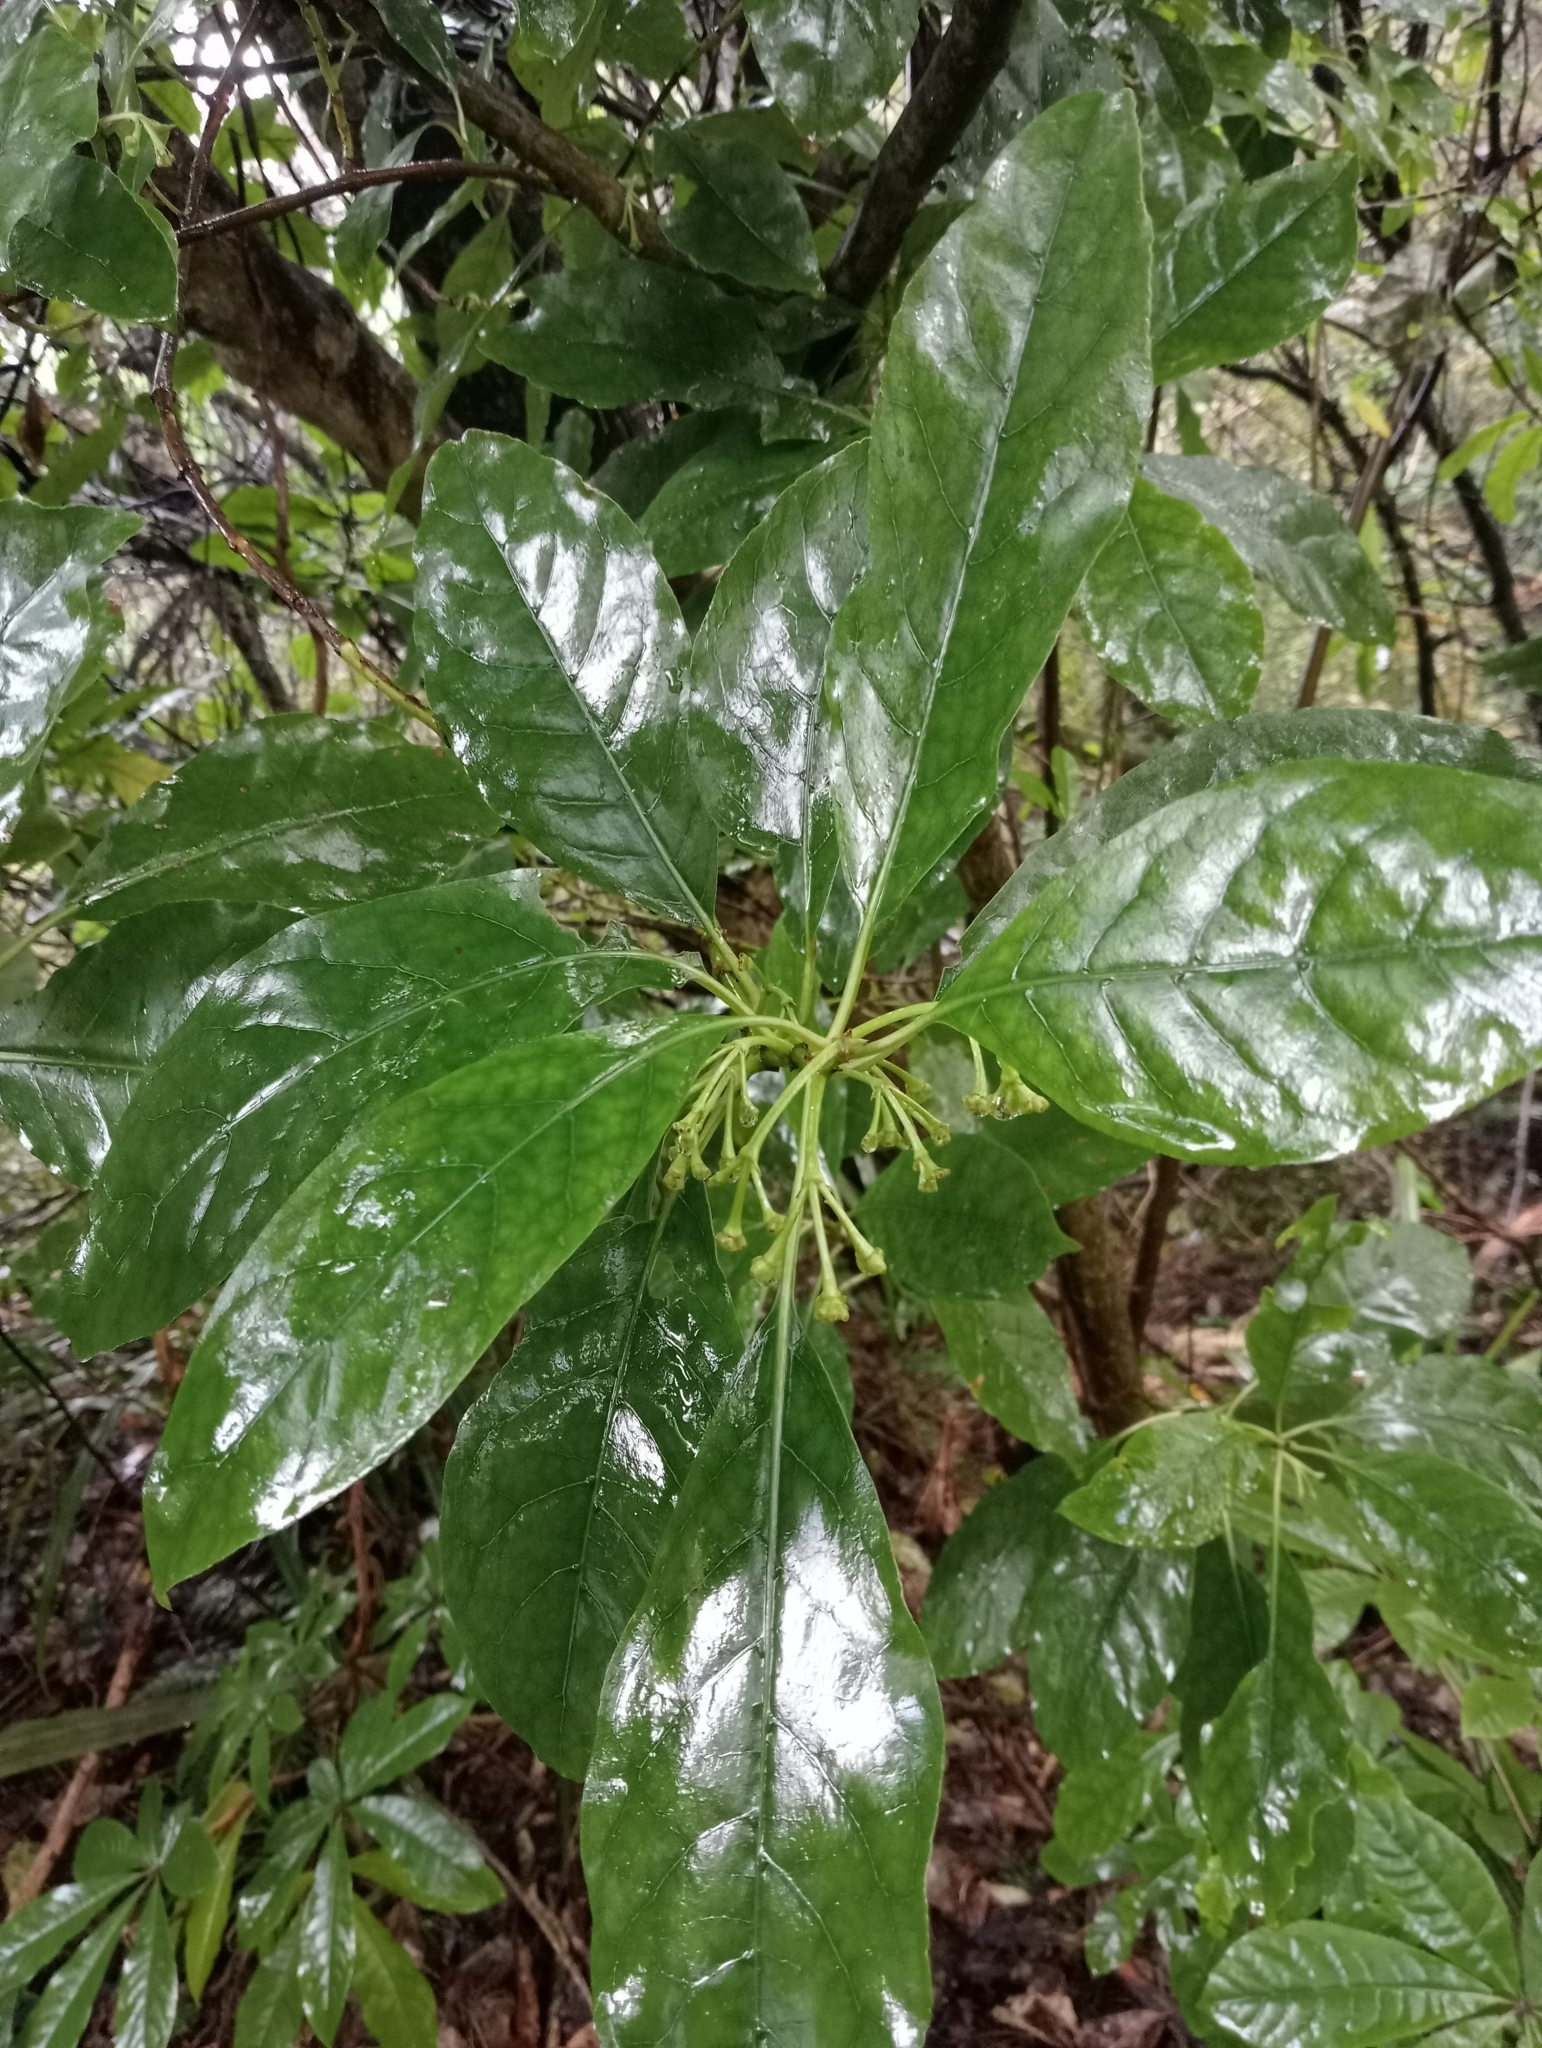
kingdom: Plantae
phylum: Tracheophyta
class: Magnoliopsida
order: Gentianales
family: Rubiaceae
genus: Coprosma
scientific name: Coprosma autumnalis
